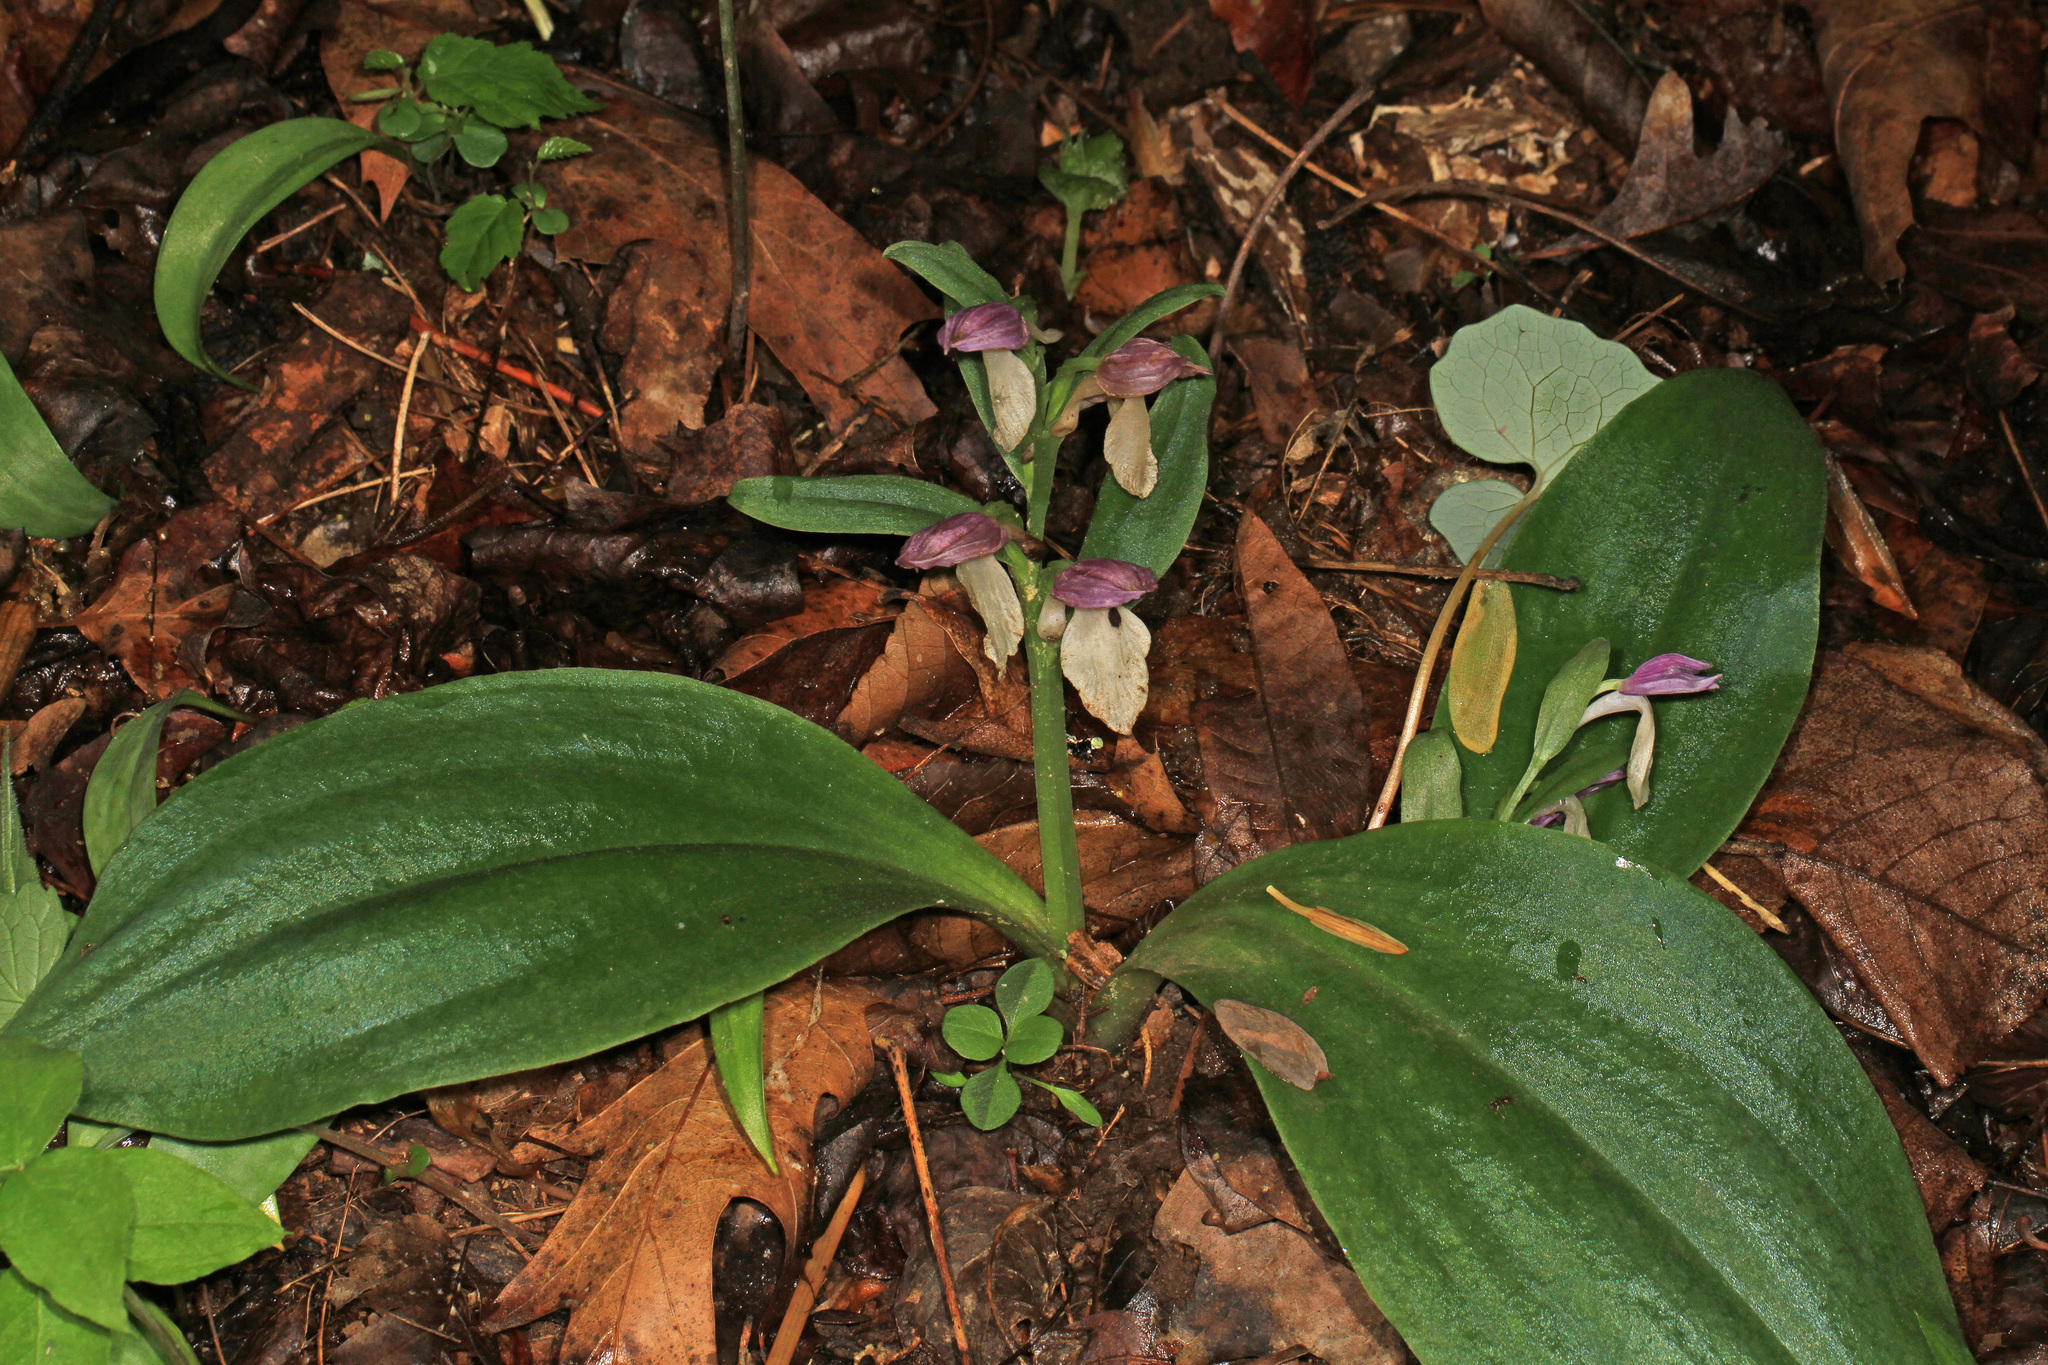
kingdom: Plantae
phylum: Tracheophyta
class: Liliopsida
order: Asparagales
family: Orchidaceae
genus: Galearis
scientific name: Galearis spectabilis
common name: Purple-hooded orchis
